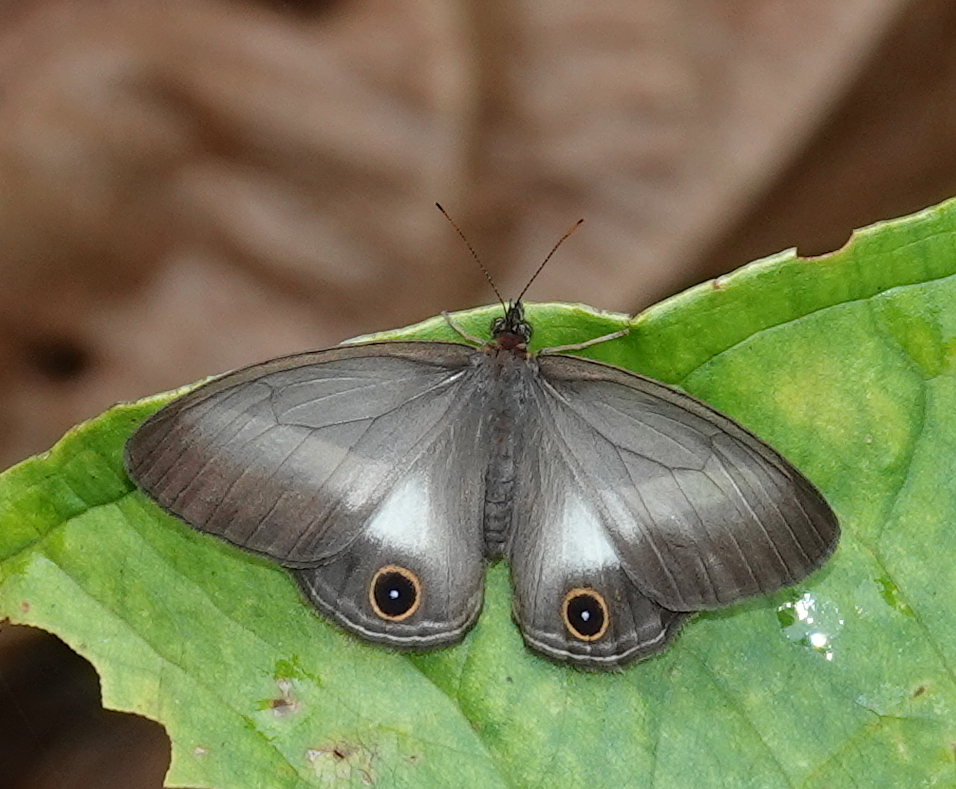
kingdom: Animalia
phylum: Arthropoda
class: Insecta
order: Lepidoptera
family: Nymphalidae
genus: Euptychoides
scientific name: Euptychoides albofasciata
